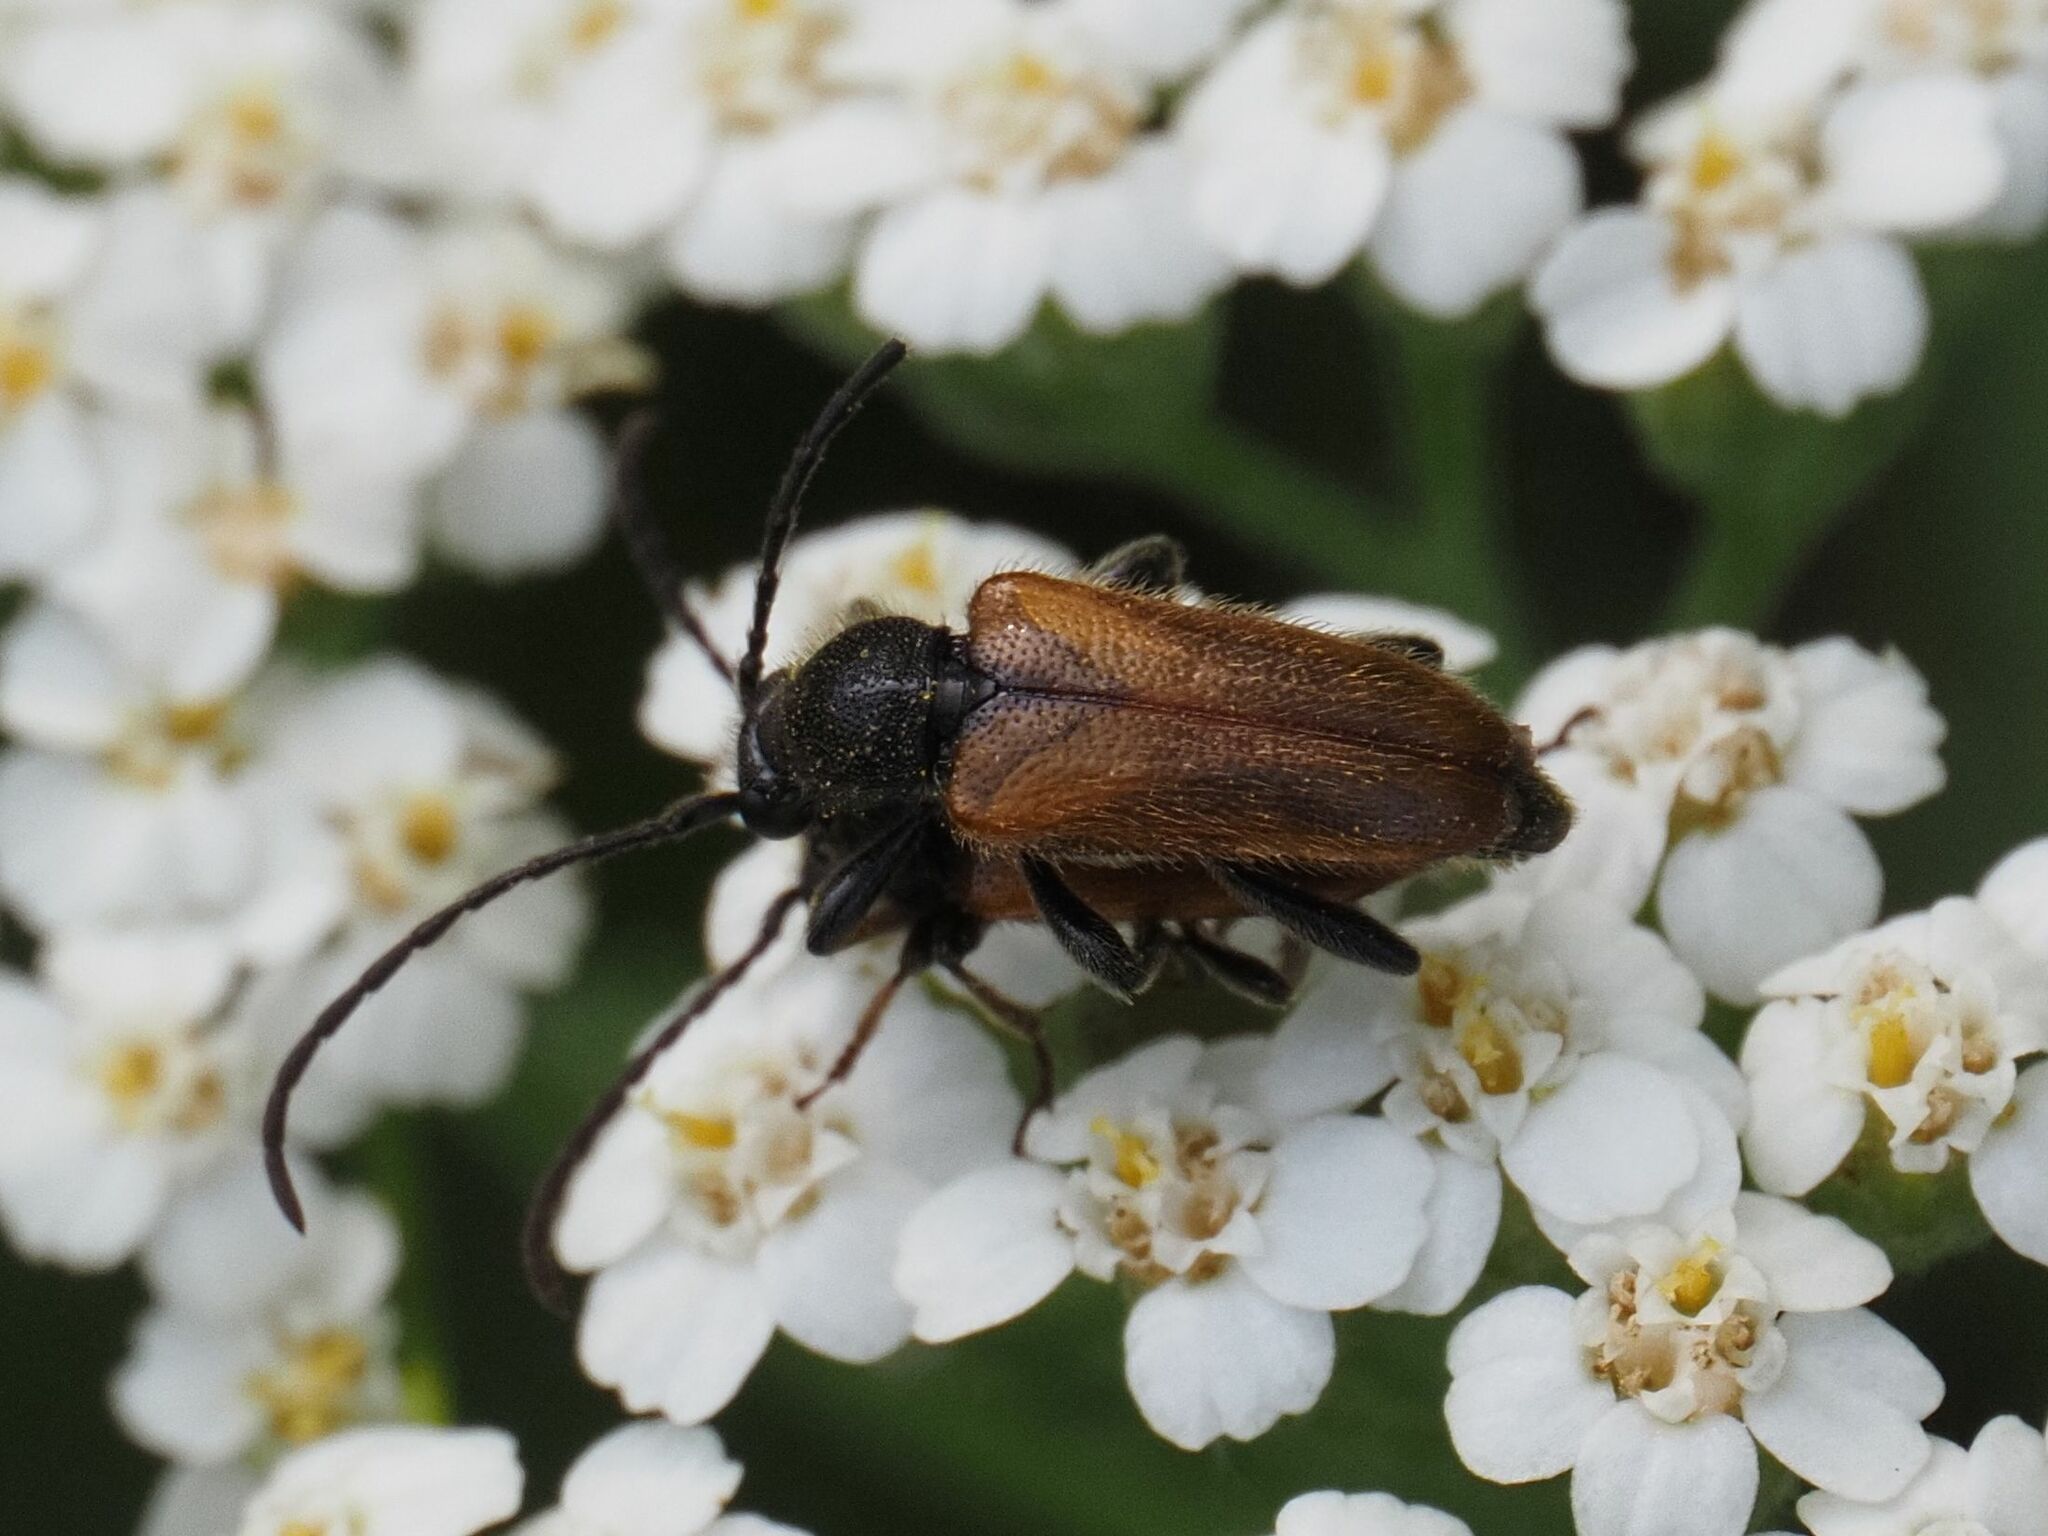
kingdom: Animalia
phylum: Arthropoda
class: Insecta
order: Coleoptera
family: Cerambycidae
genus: Pseudovadonia
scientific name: Pseudovadonia livida
